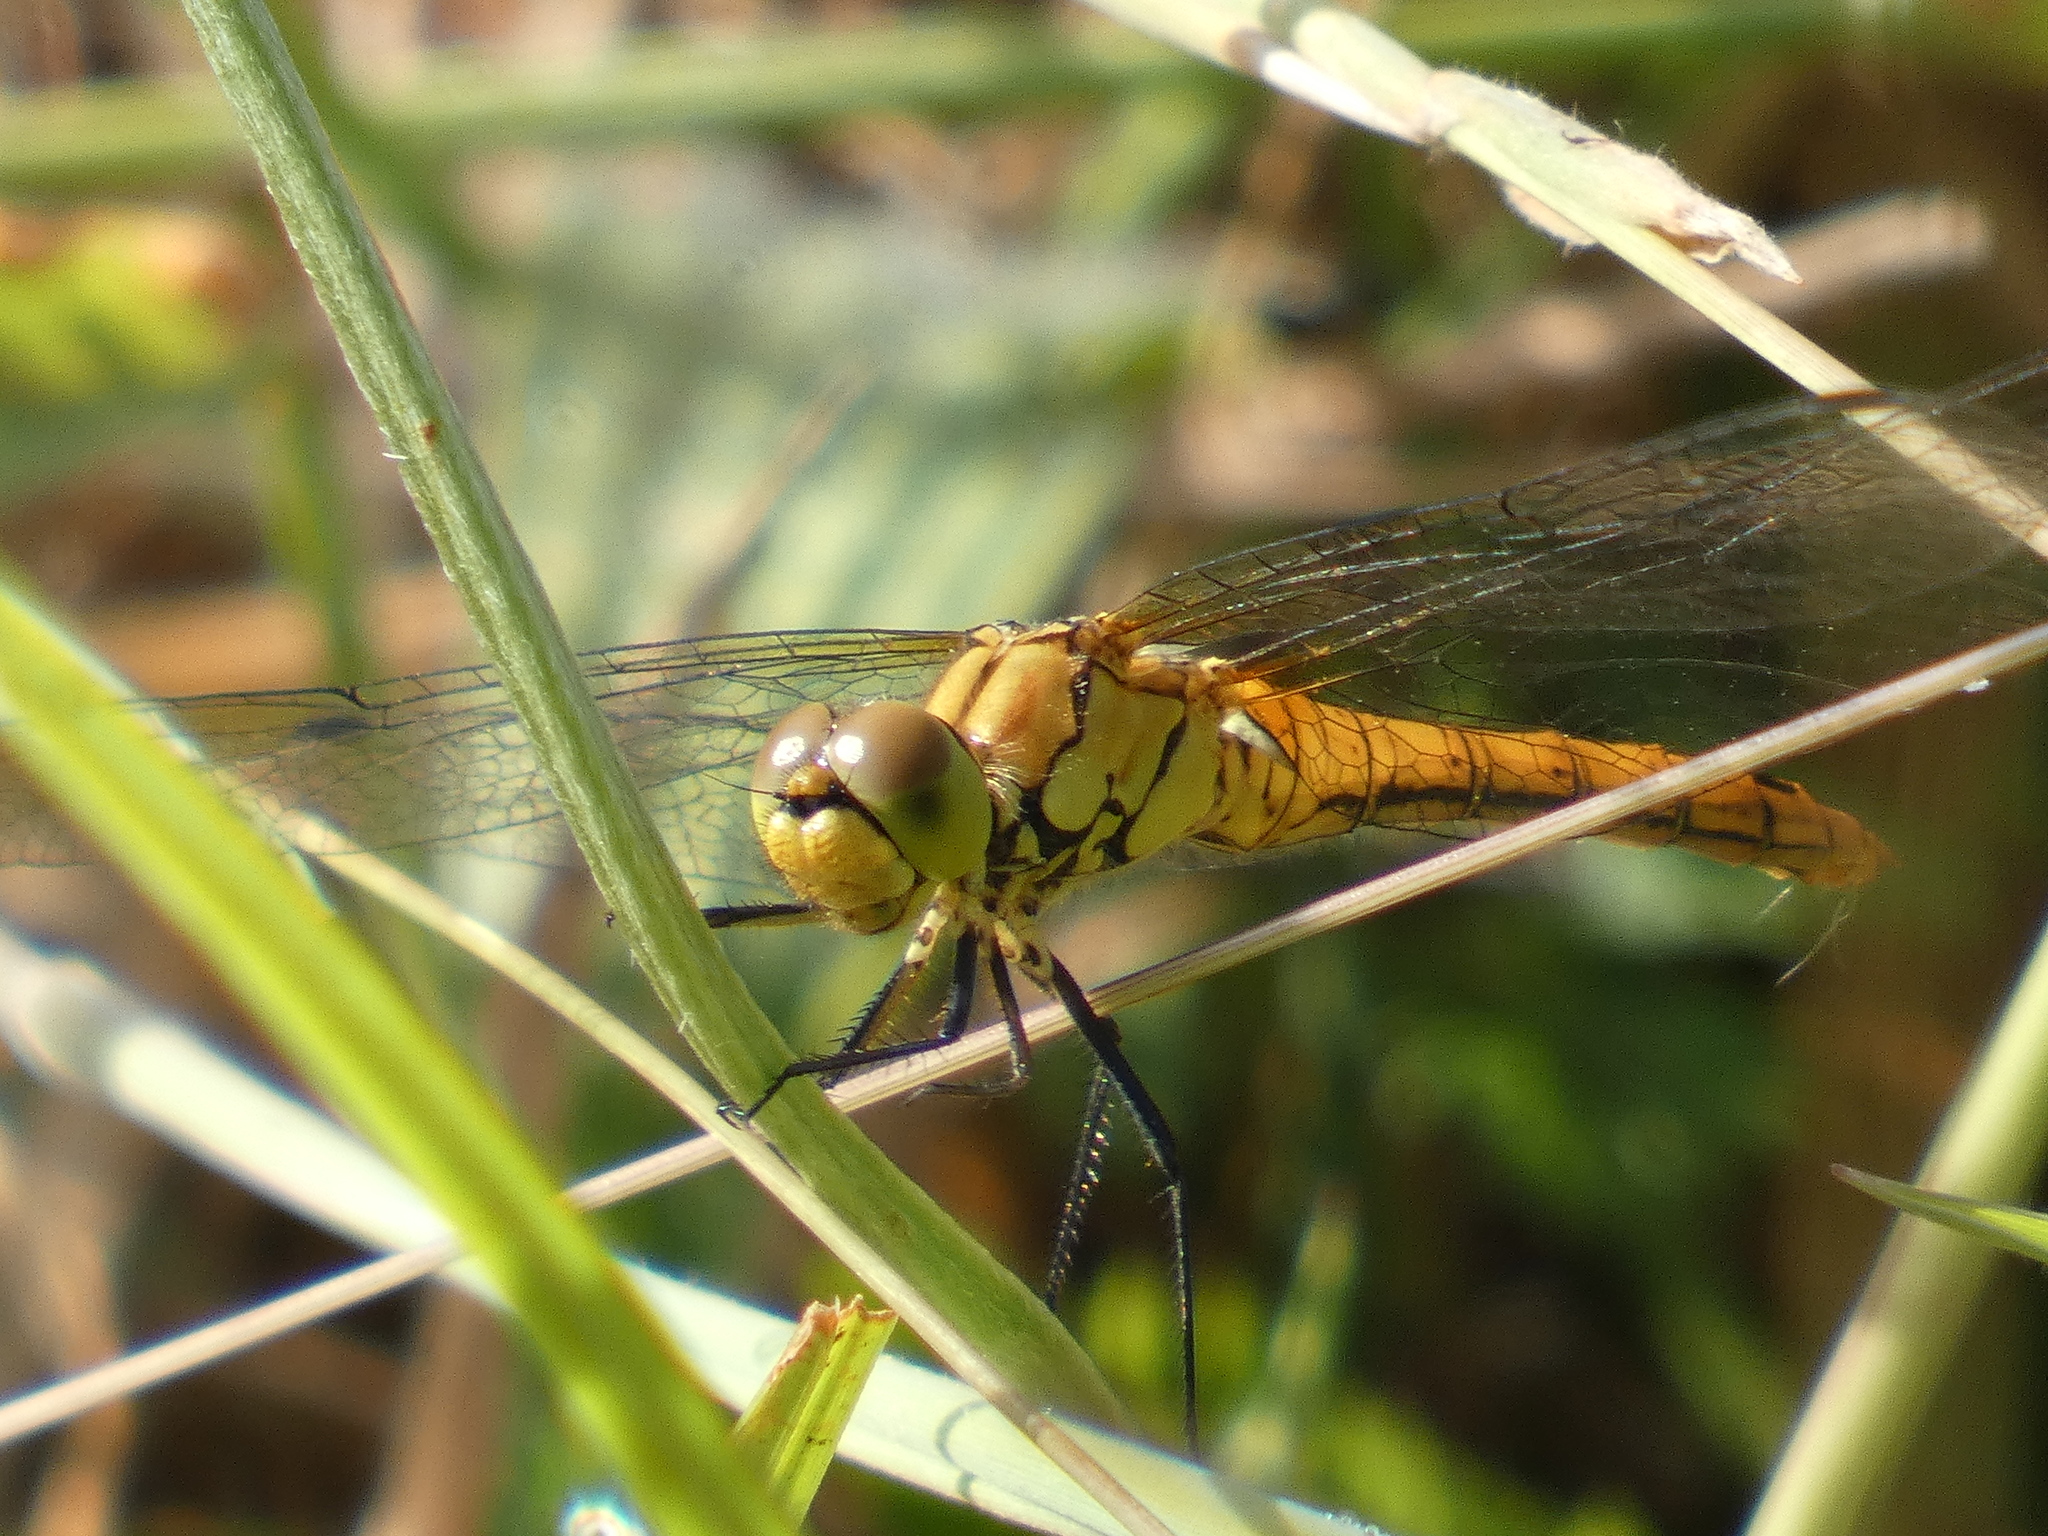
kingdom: Animalia
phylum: Arthropoda
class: Insecta
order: Odonata
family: Libellulidae
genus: Sympetrum
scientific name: Sympetrum sanguineum
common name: Ruddy darter
